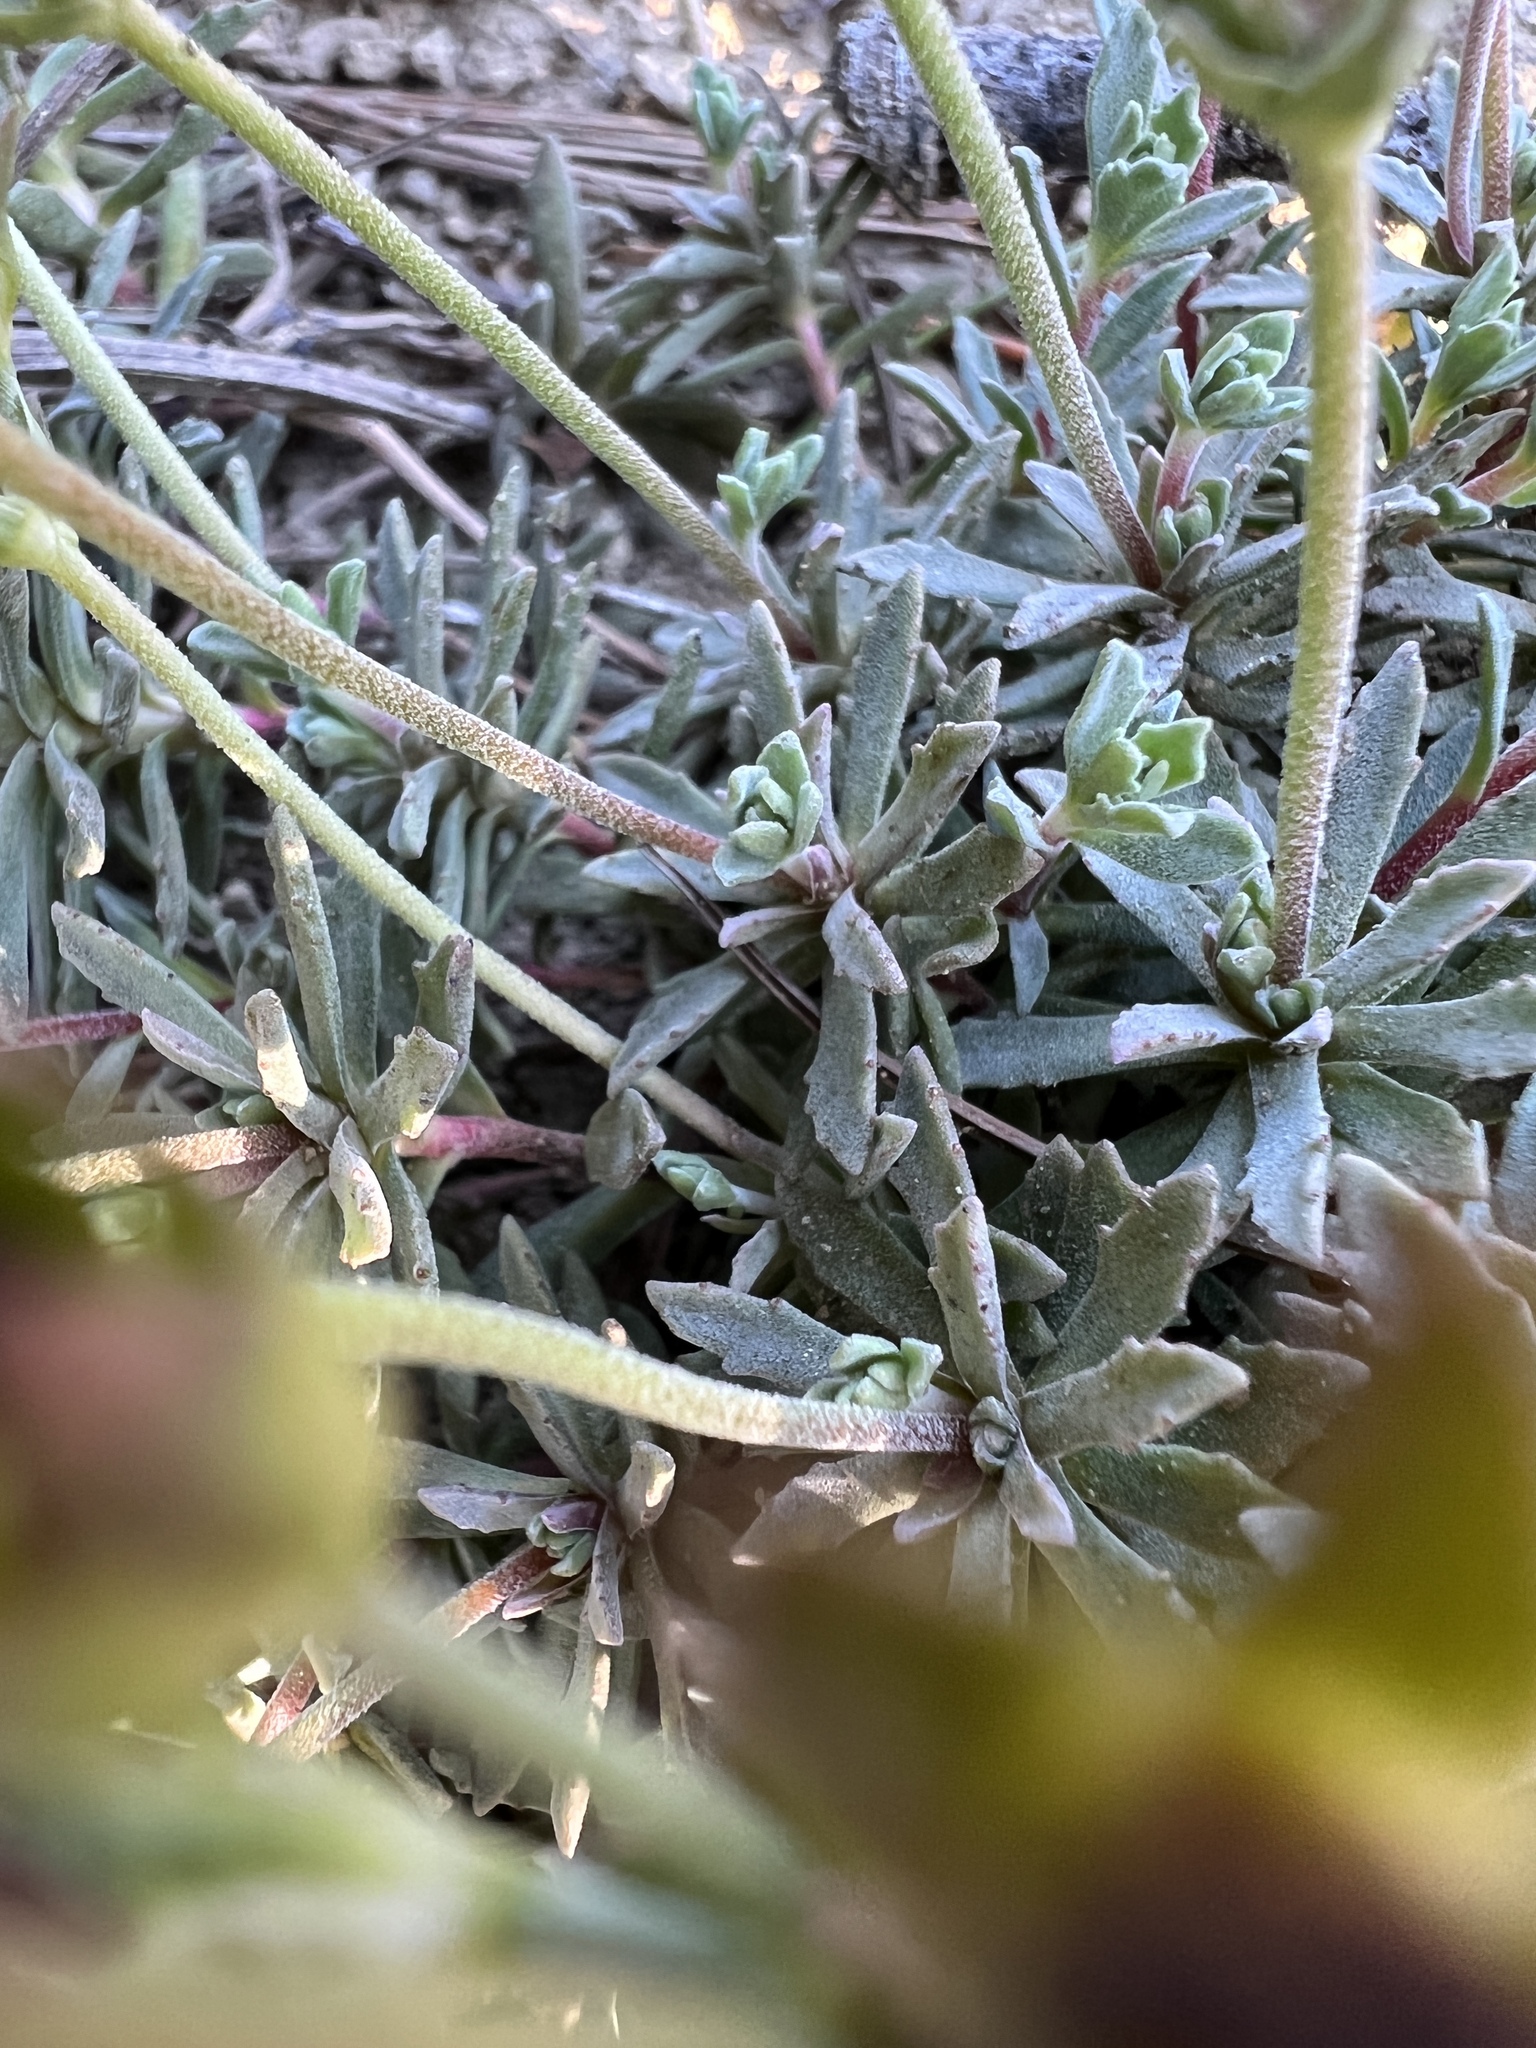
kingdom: Plantae
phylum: Tracheophyta
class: Magnoliopsida
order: Ericales
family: Primulaceae
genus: Androsace
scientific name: Androsace nivalis
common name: Snow dwarf-primrose
